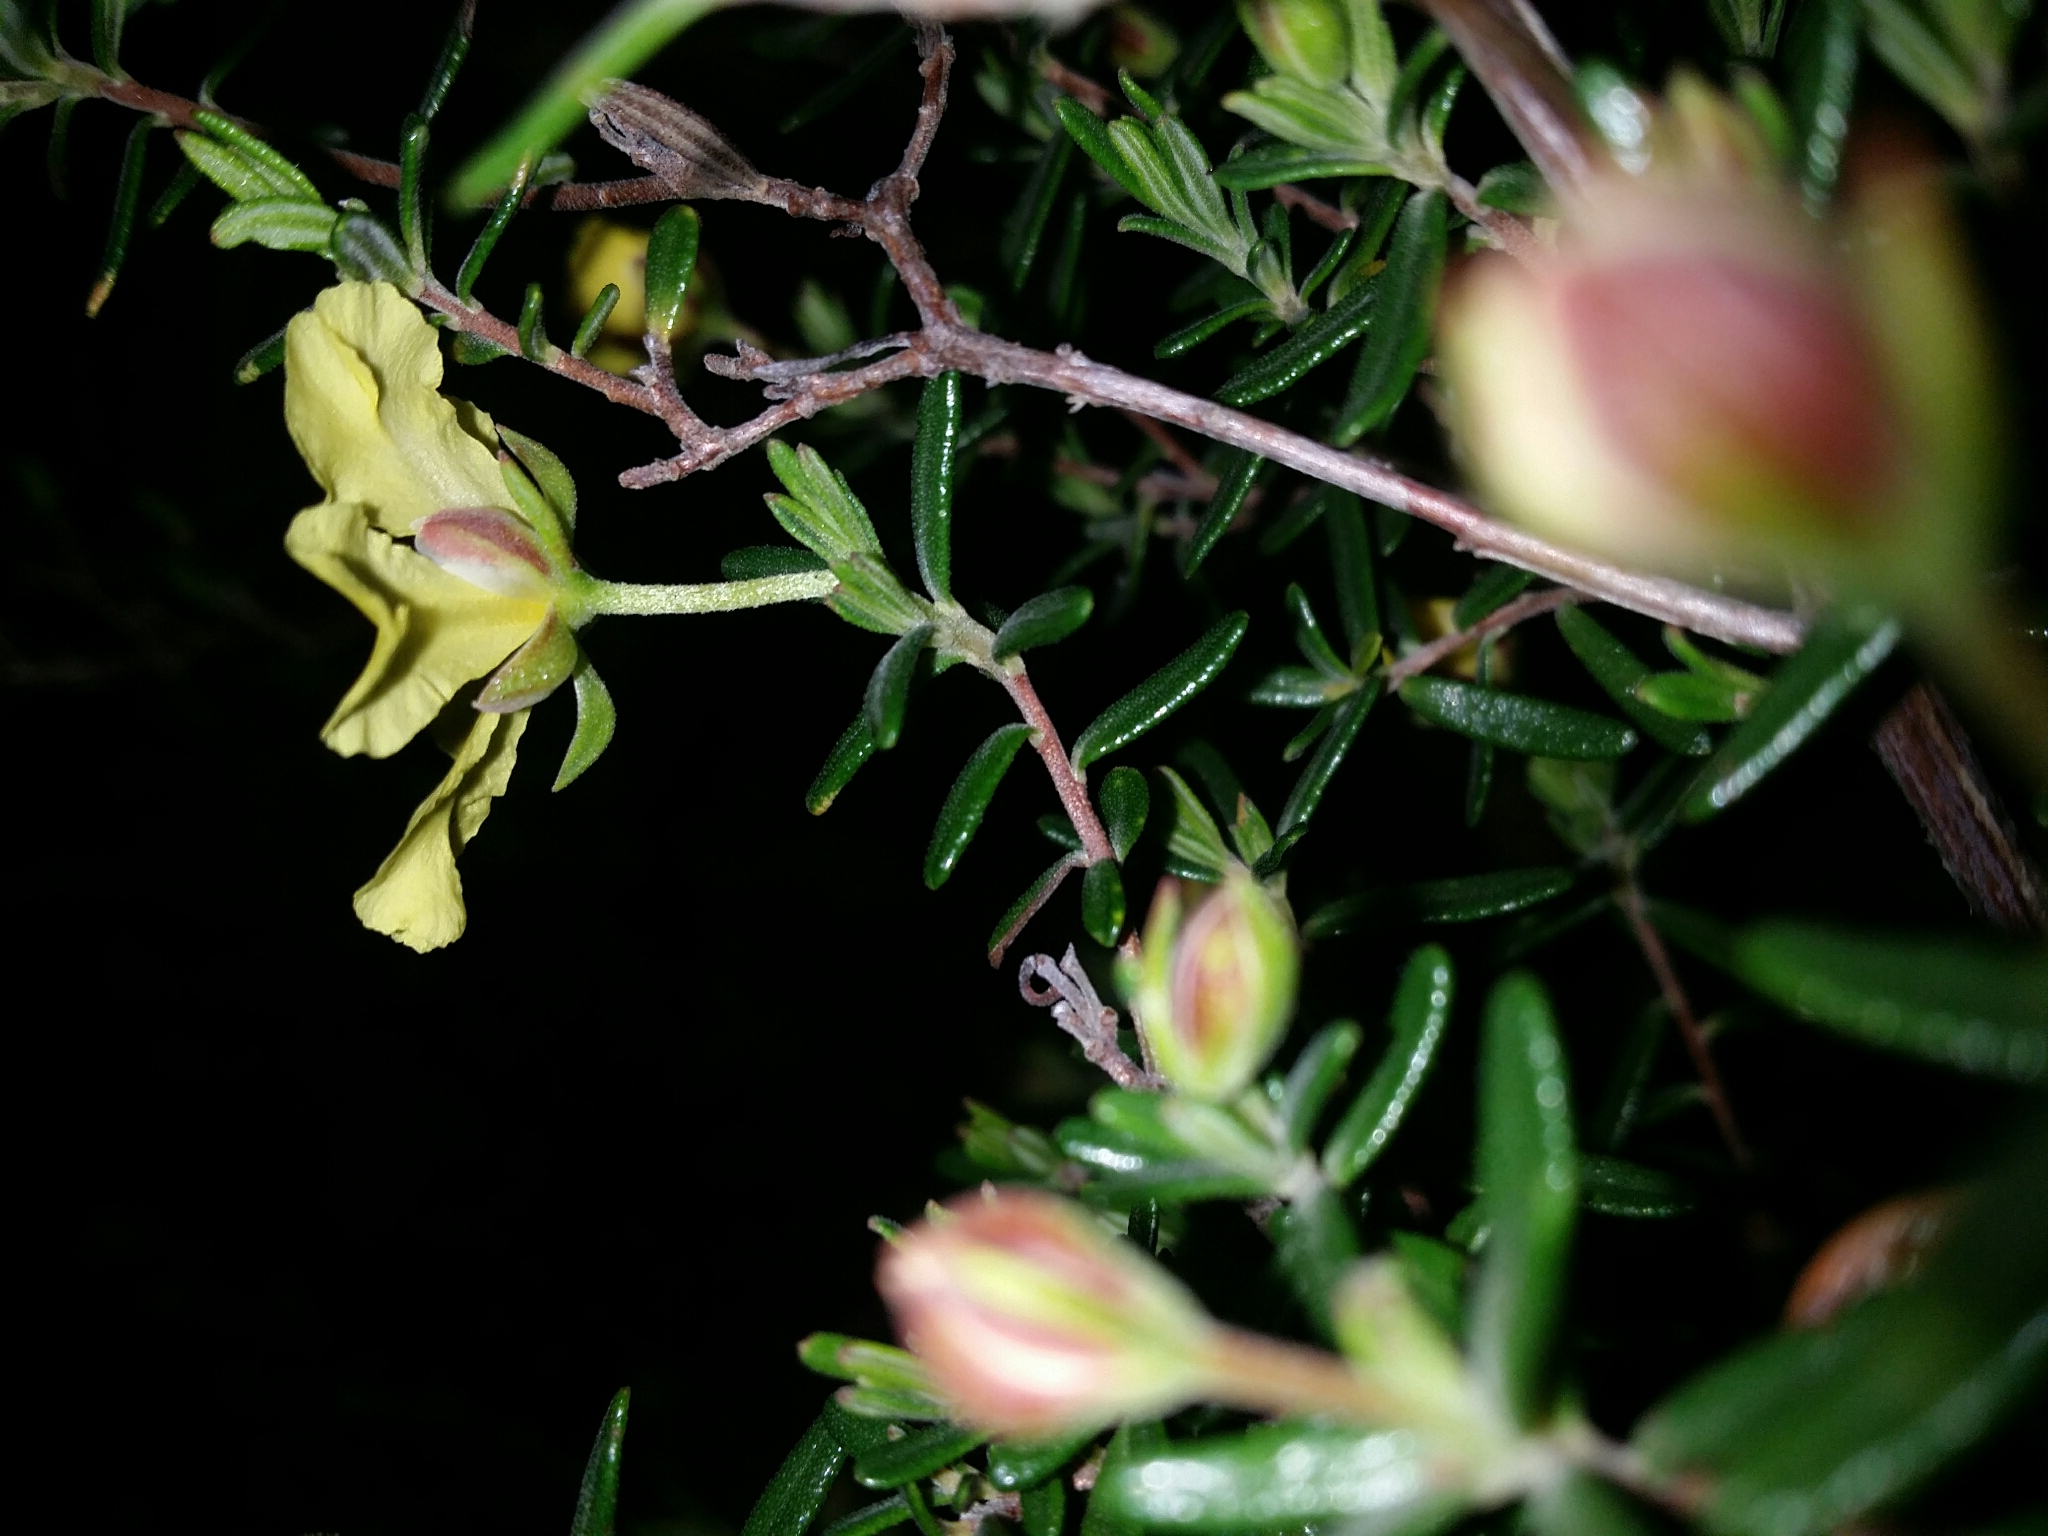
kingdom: Plantae
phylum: Tracheophyta
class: Magnoliopsida
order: Dilleniales
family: Dilleniaceae
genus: Hibbertia
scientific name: Hibbertia hypericoides
